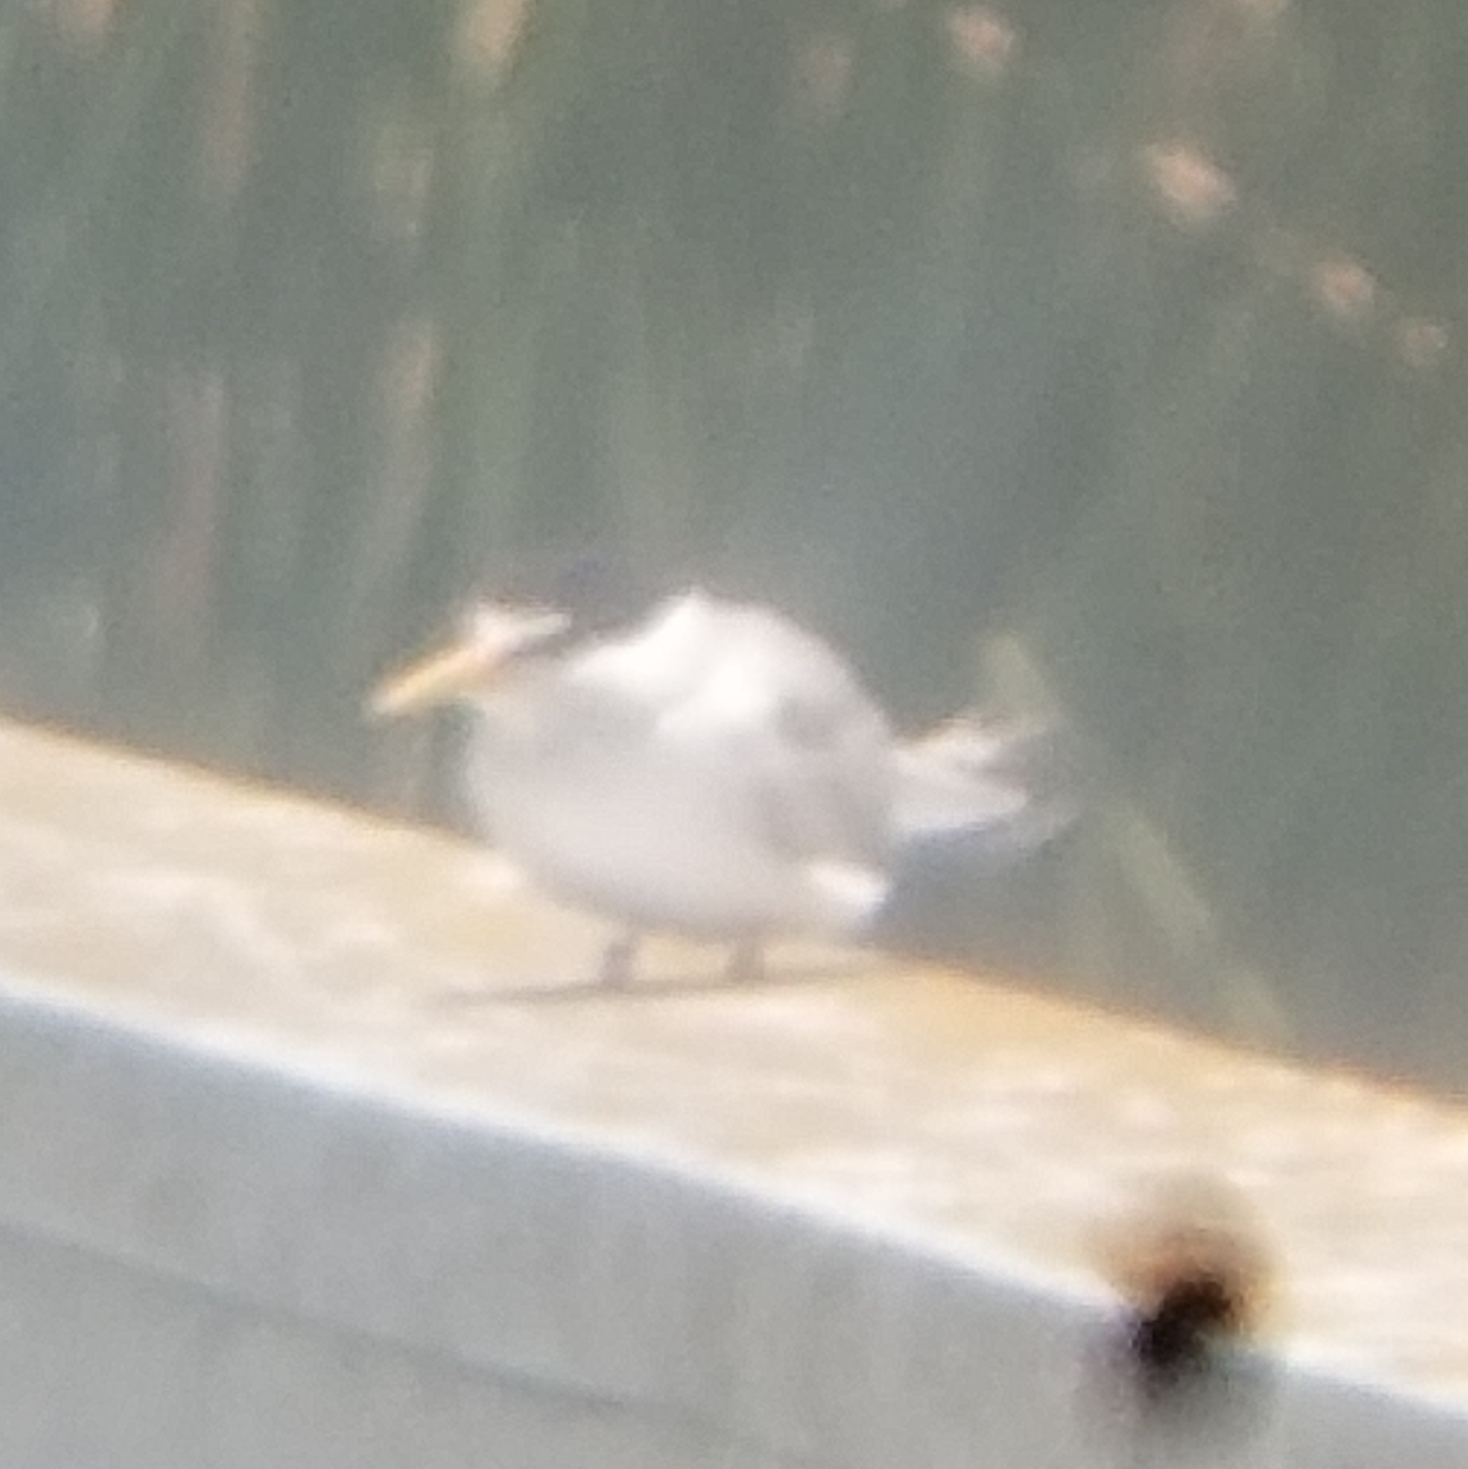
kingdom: Animalia
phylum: Chordata
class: Aves
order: Charadriiformes
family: Laridae
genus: Sternula
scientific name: Sternula antillarum
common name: Least tern
